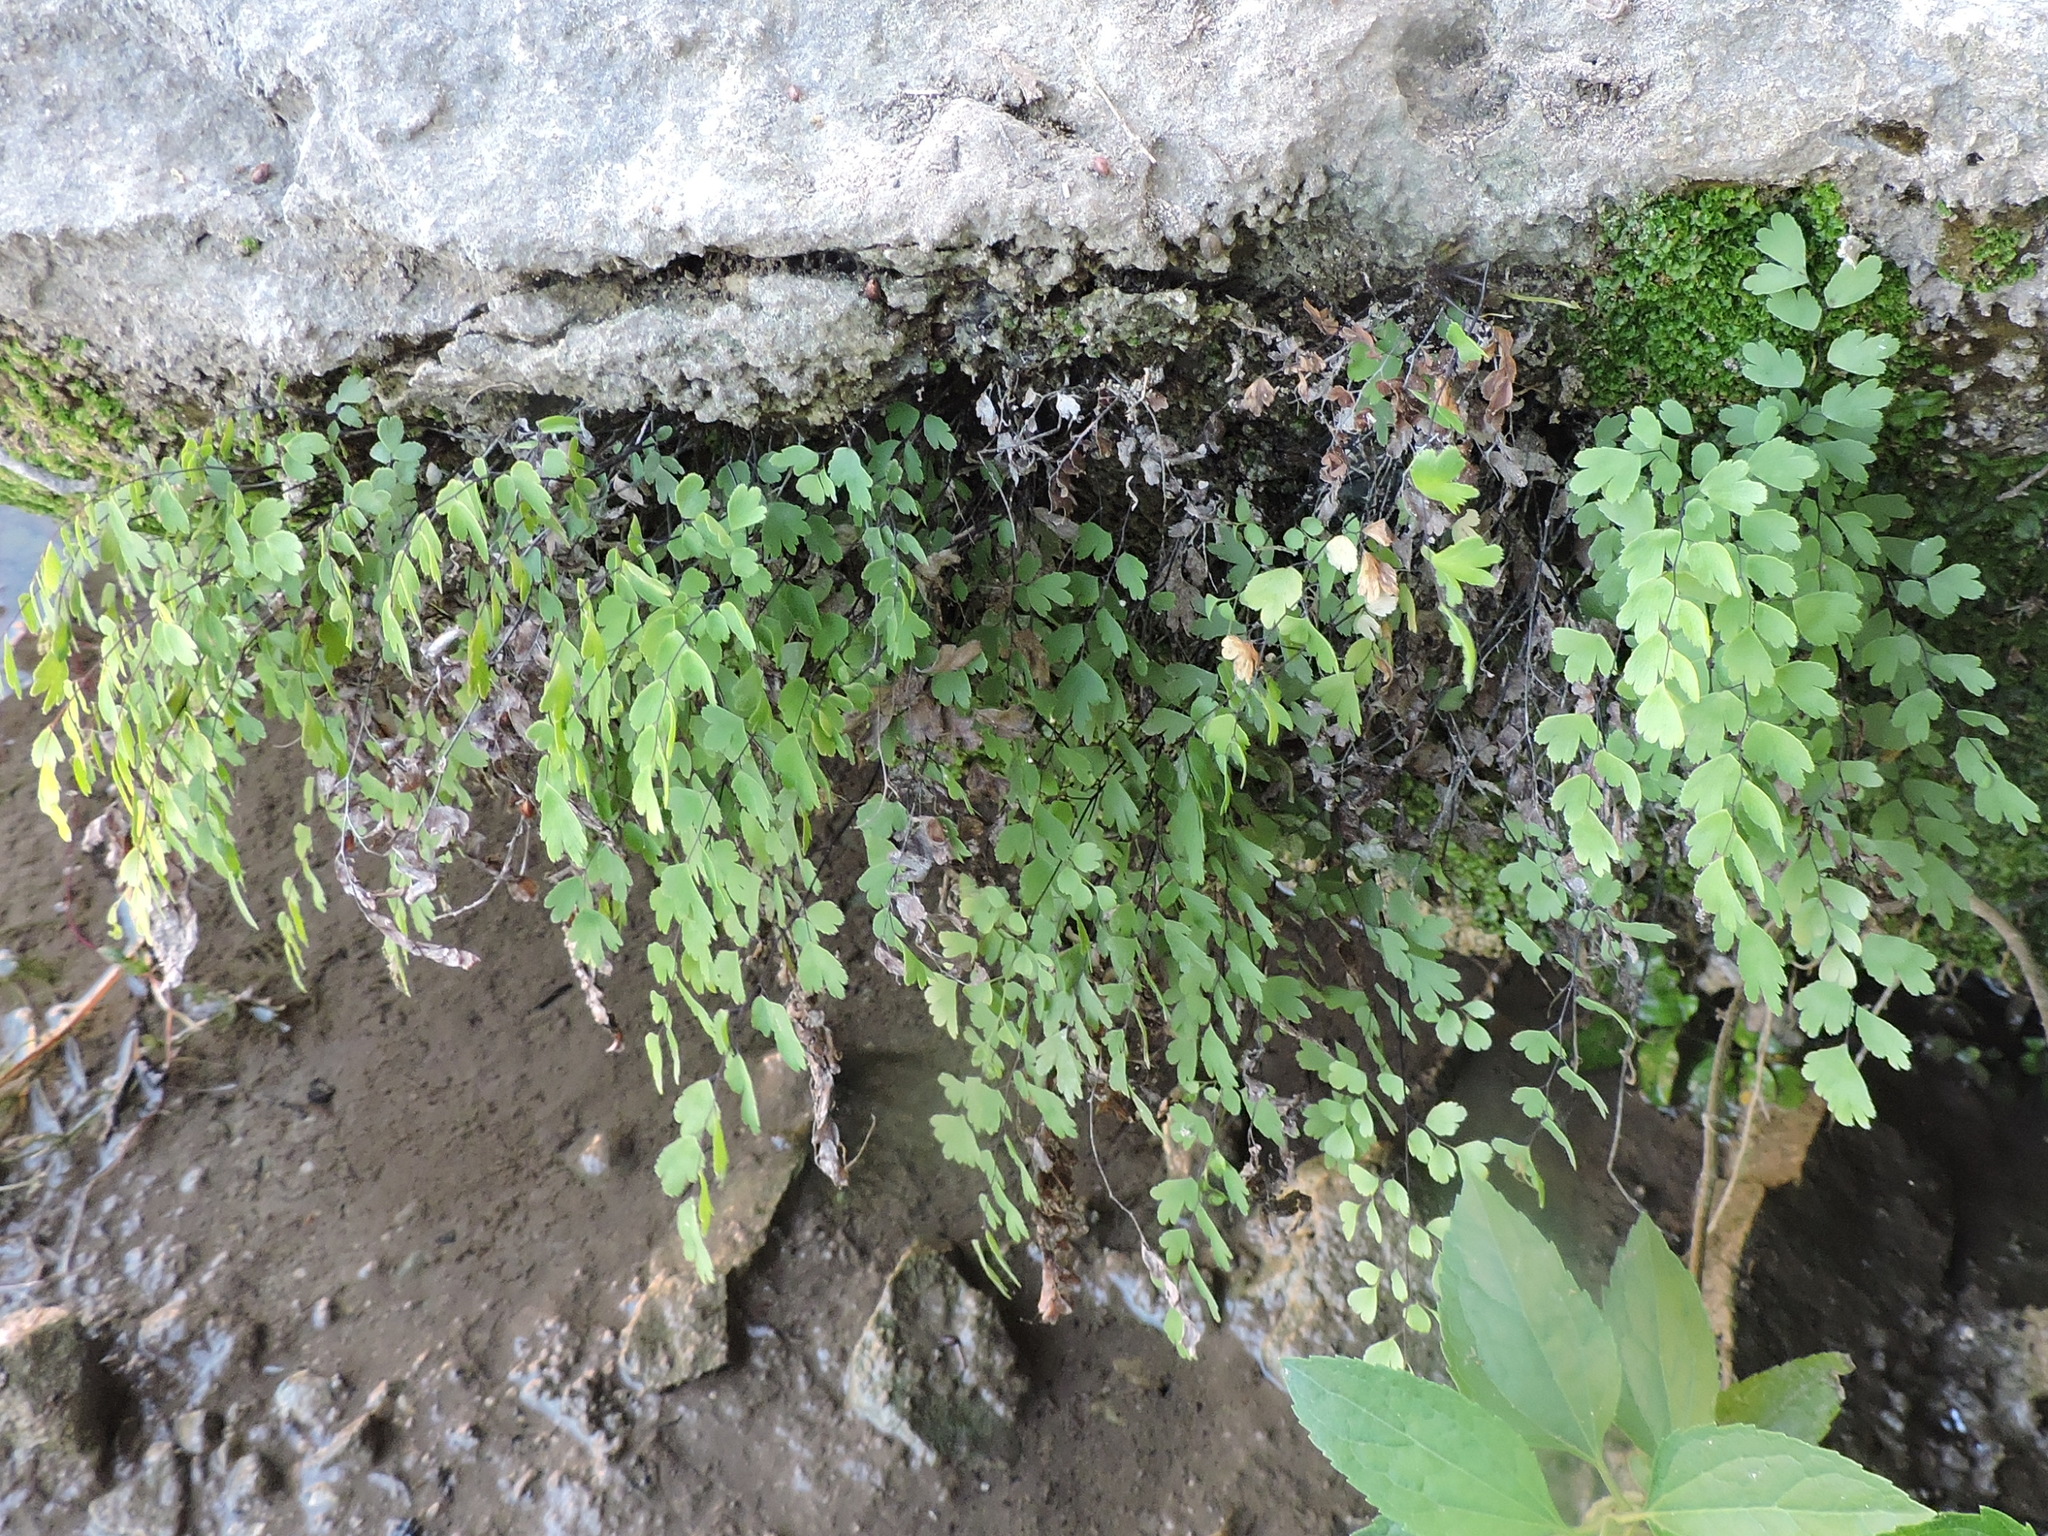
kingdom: Plantae
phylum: Tracheophyta
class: Polypodiopsida
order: Polypodiales
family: Pteridaceae
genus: Adiantum
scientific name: Adiantum capillus-veneris
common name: Maidenhair fern
